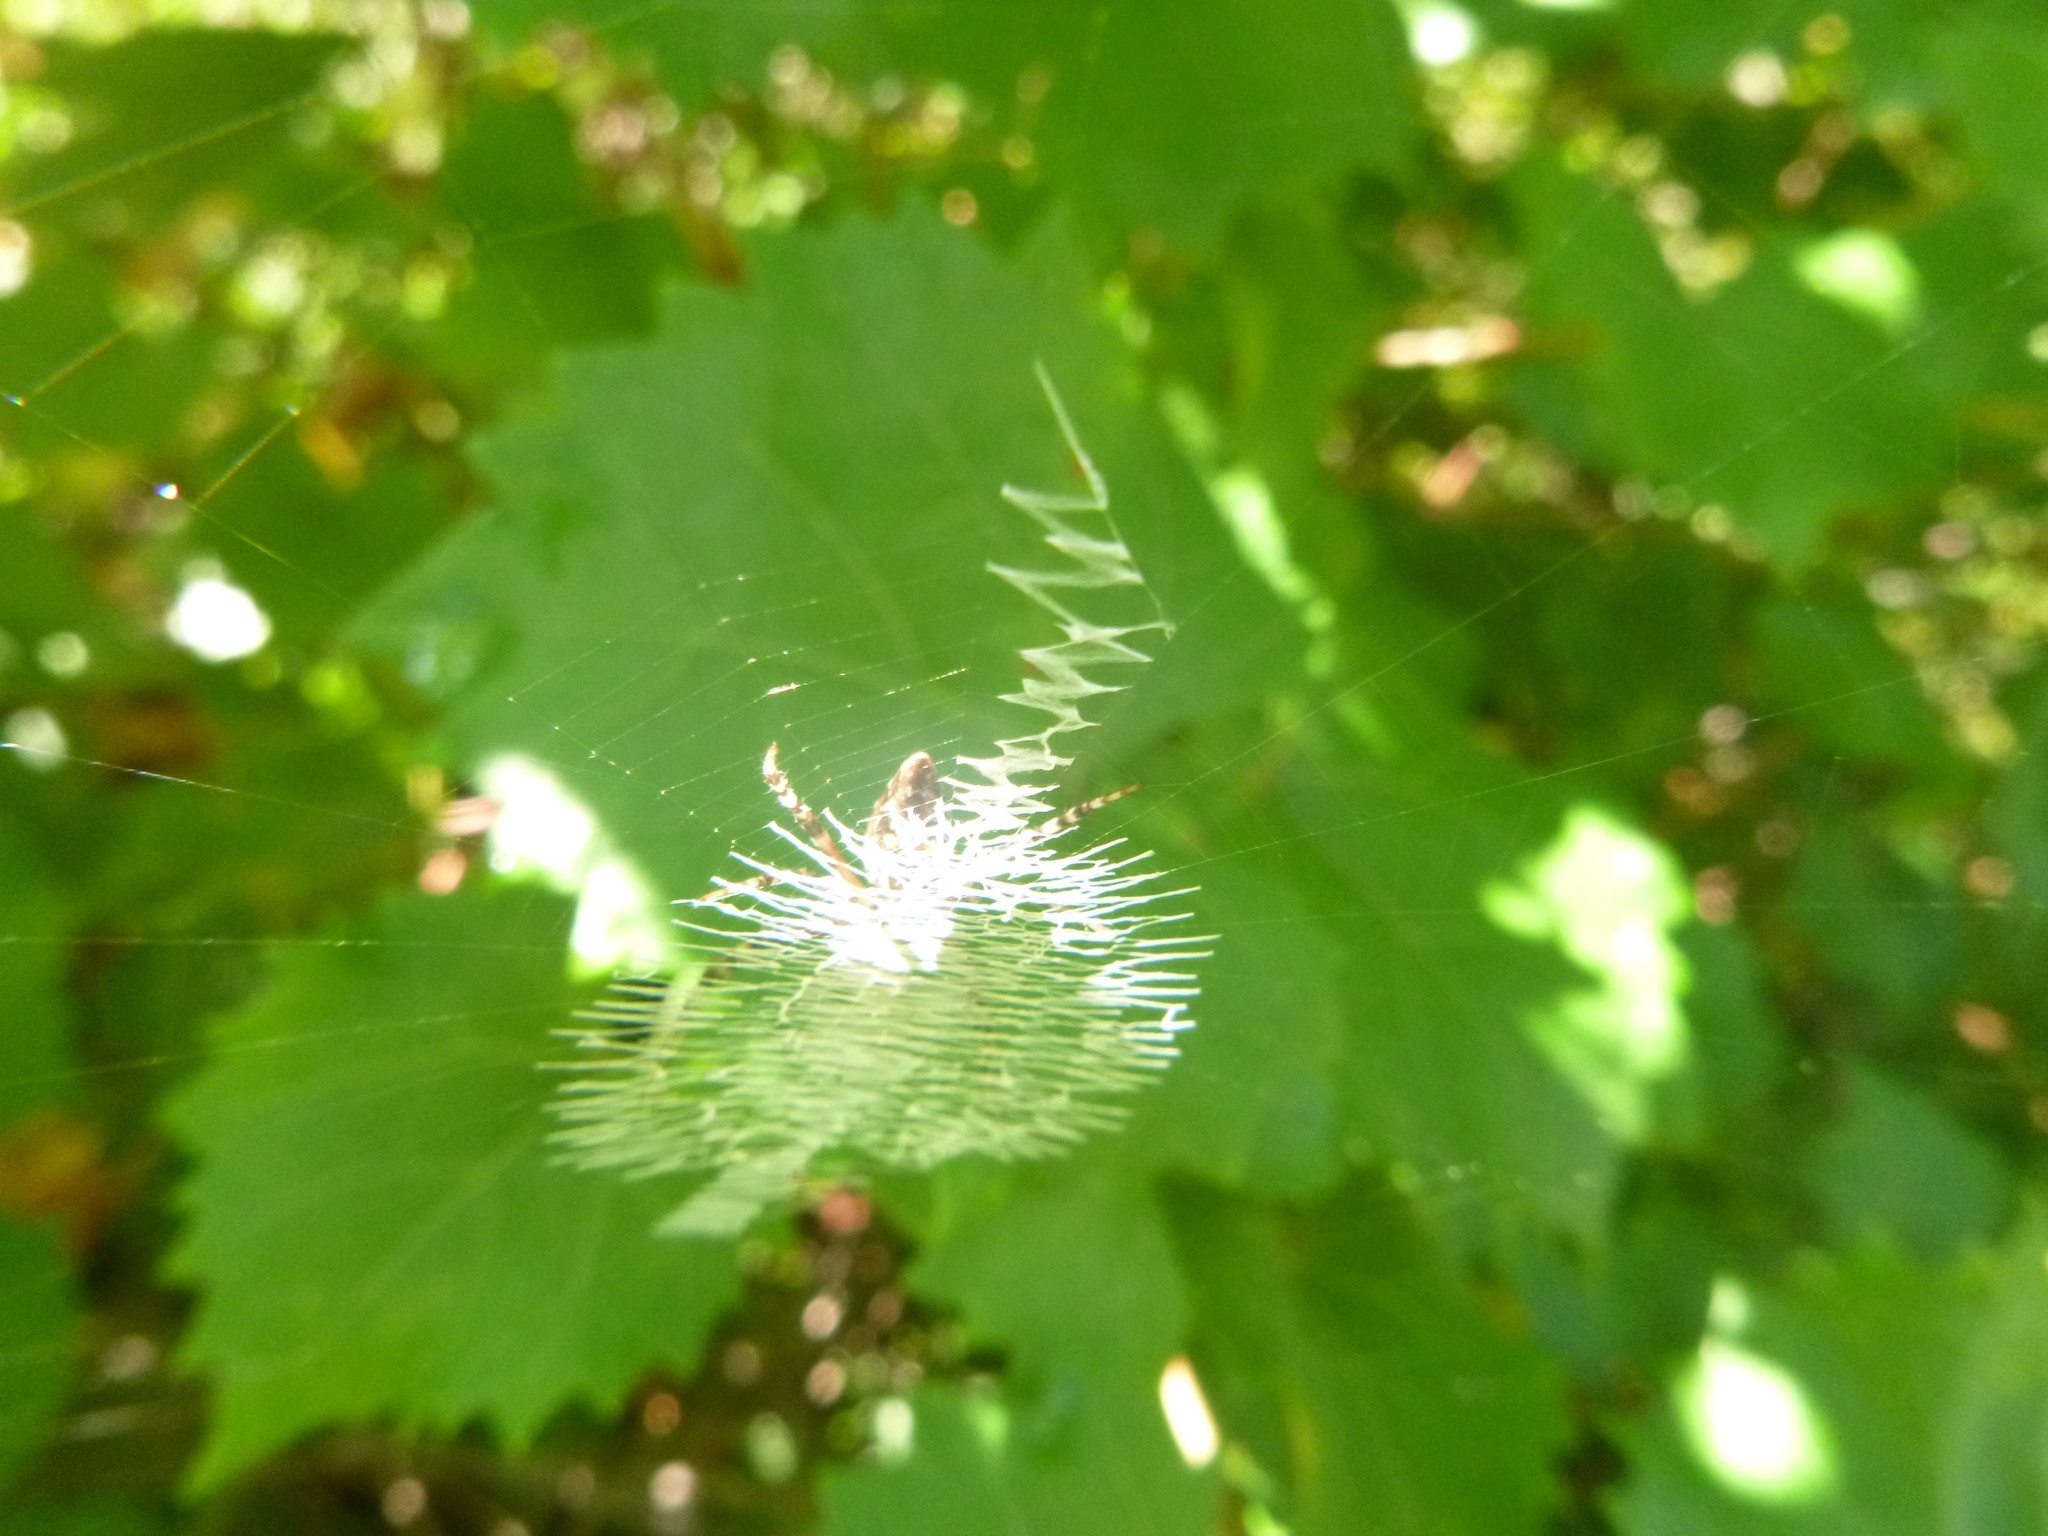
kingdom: Animalia
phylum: Arthropoda
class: Arachnida
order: Araneae
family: Araneidae
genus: Argiope
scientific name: Argiope aurantia
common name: Orb weavers
